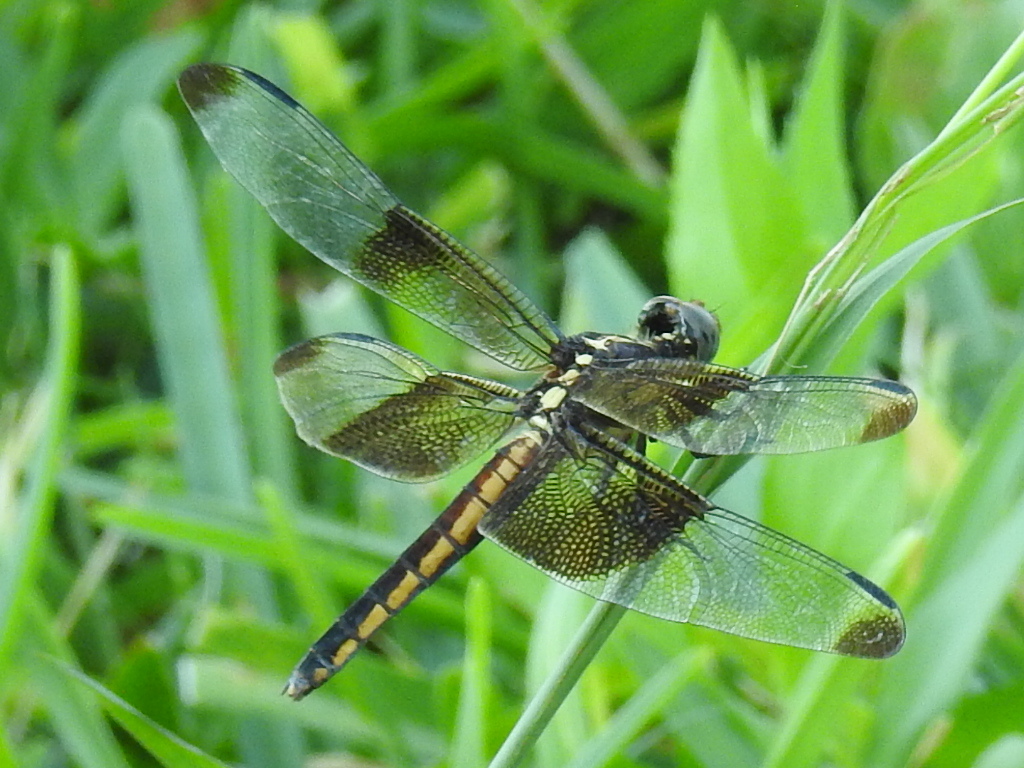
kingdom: Animalia
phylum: Arthropoda
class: Insecta
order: Odonata
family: Libellulidae
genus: Libellula
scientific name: Libellula luctuosa
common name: Widow skimmer
